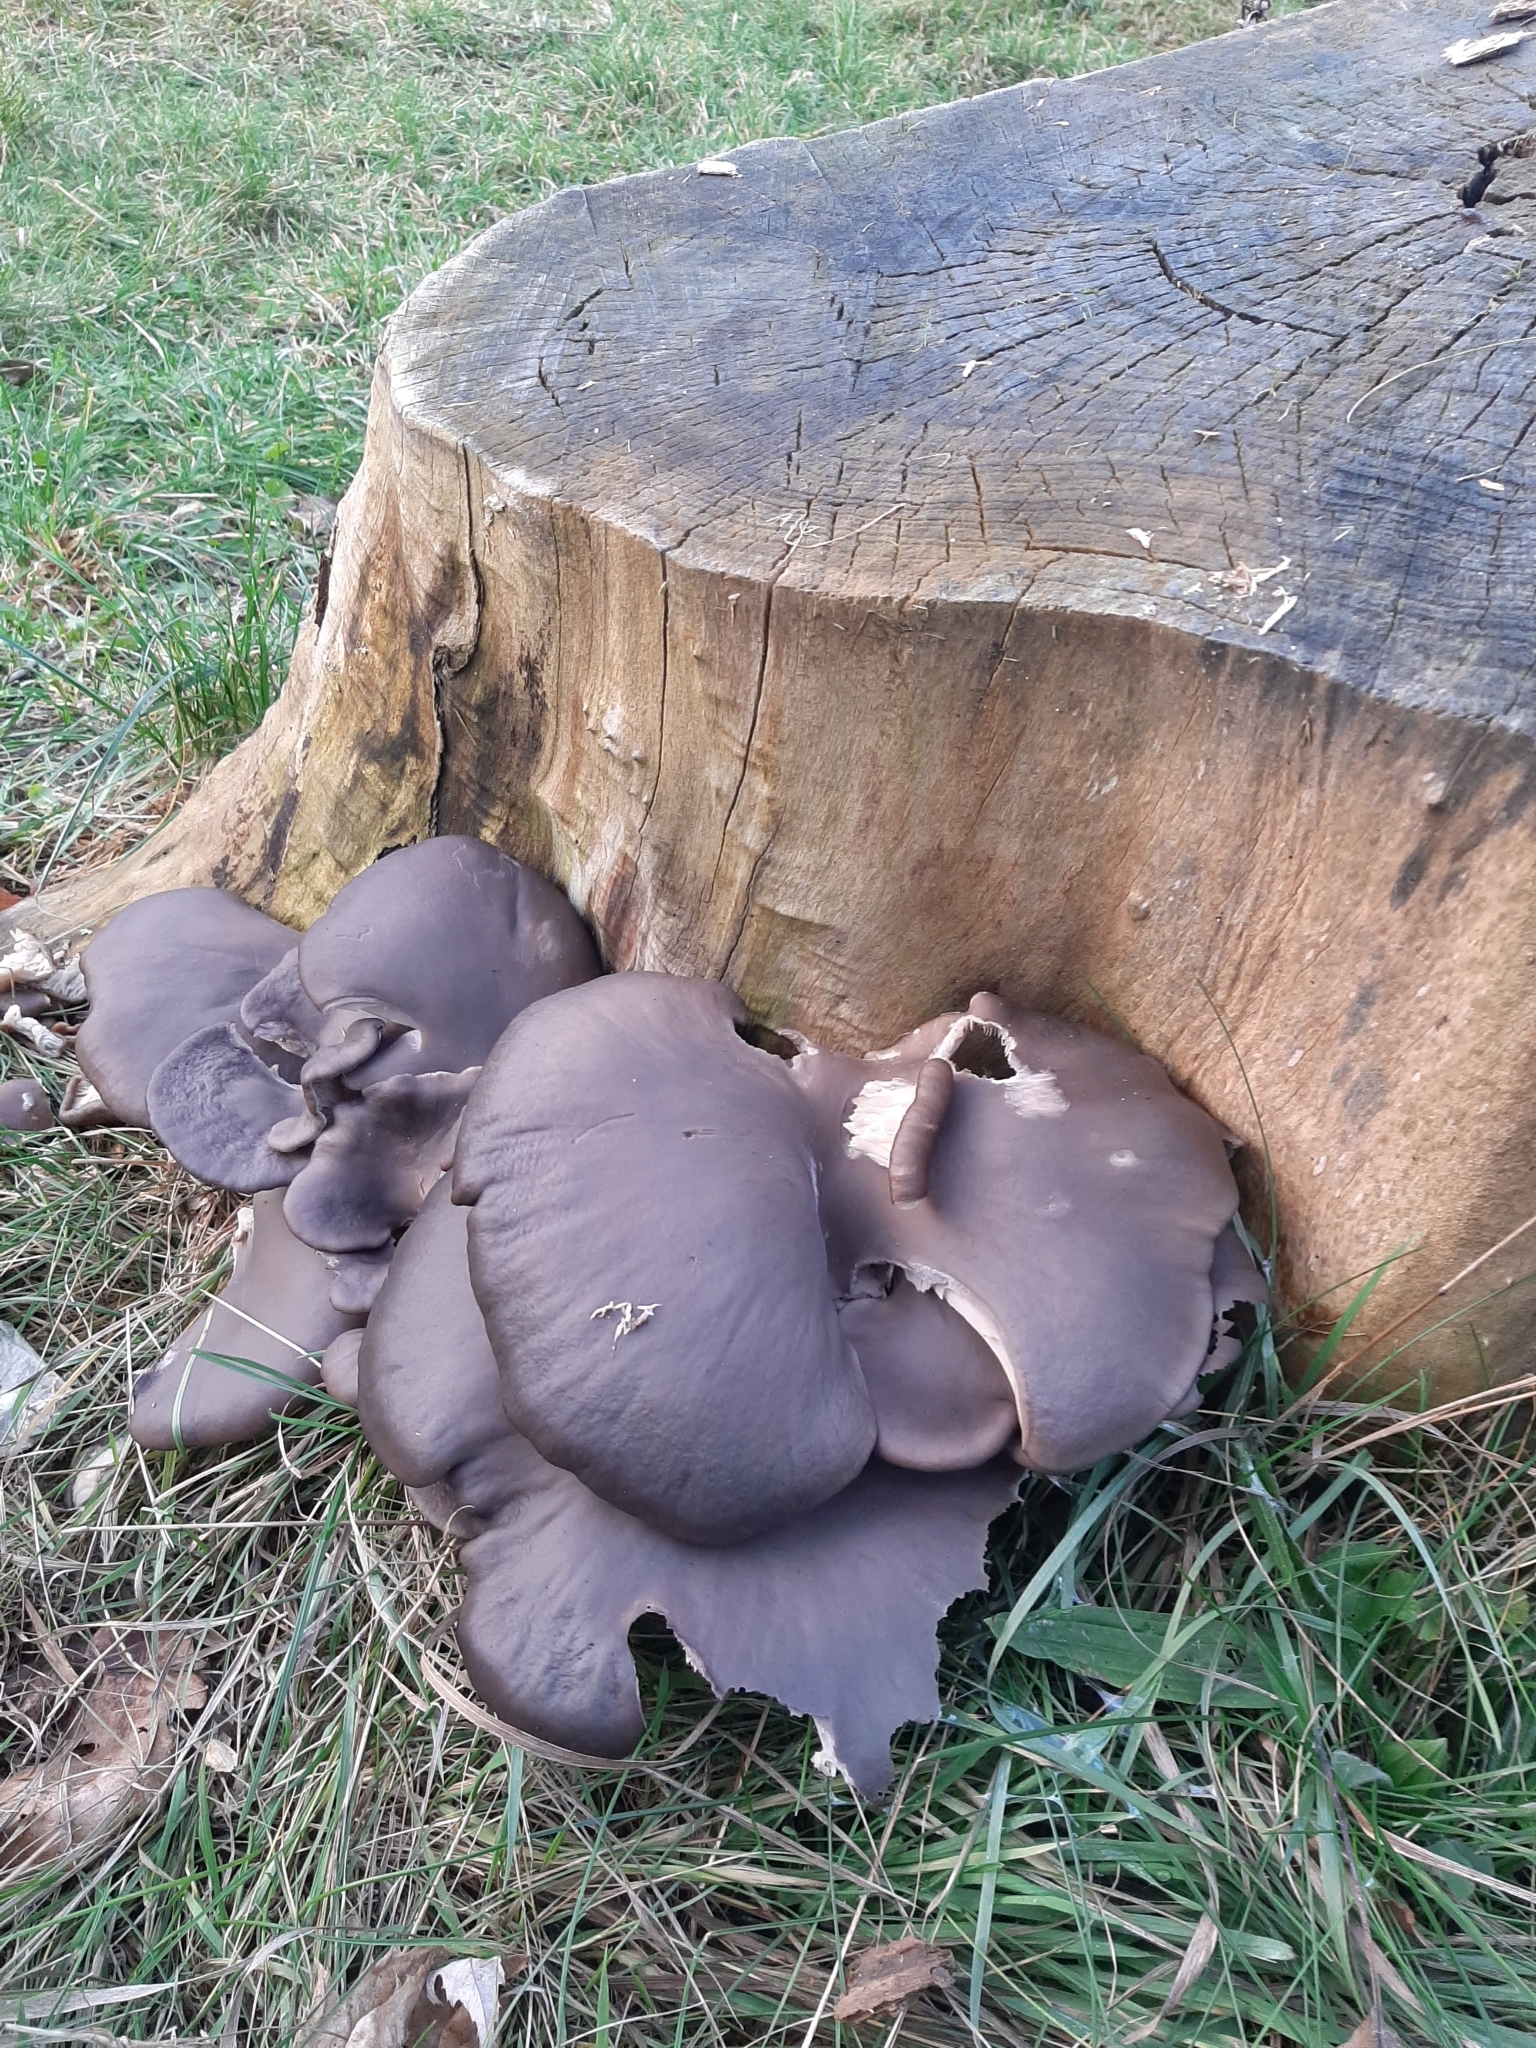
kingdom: Fungi
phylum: Basidiomycota
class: Agaricomycetes
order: Agaricales
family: Pleurotaceae
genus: Pleurotus
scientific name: Pleurotus ostreatus
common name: Oyster mushroom
